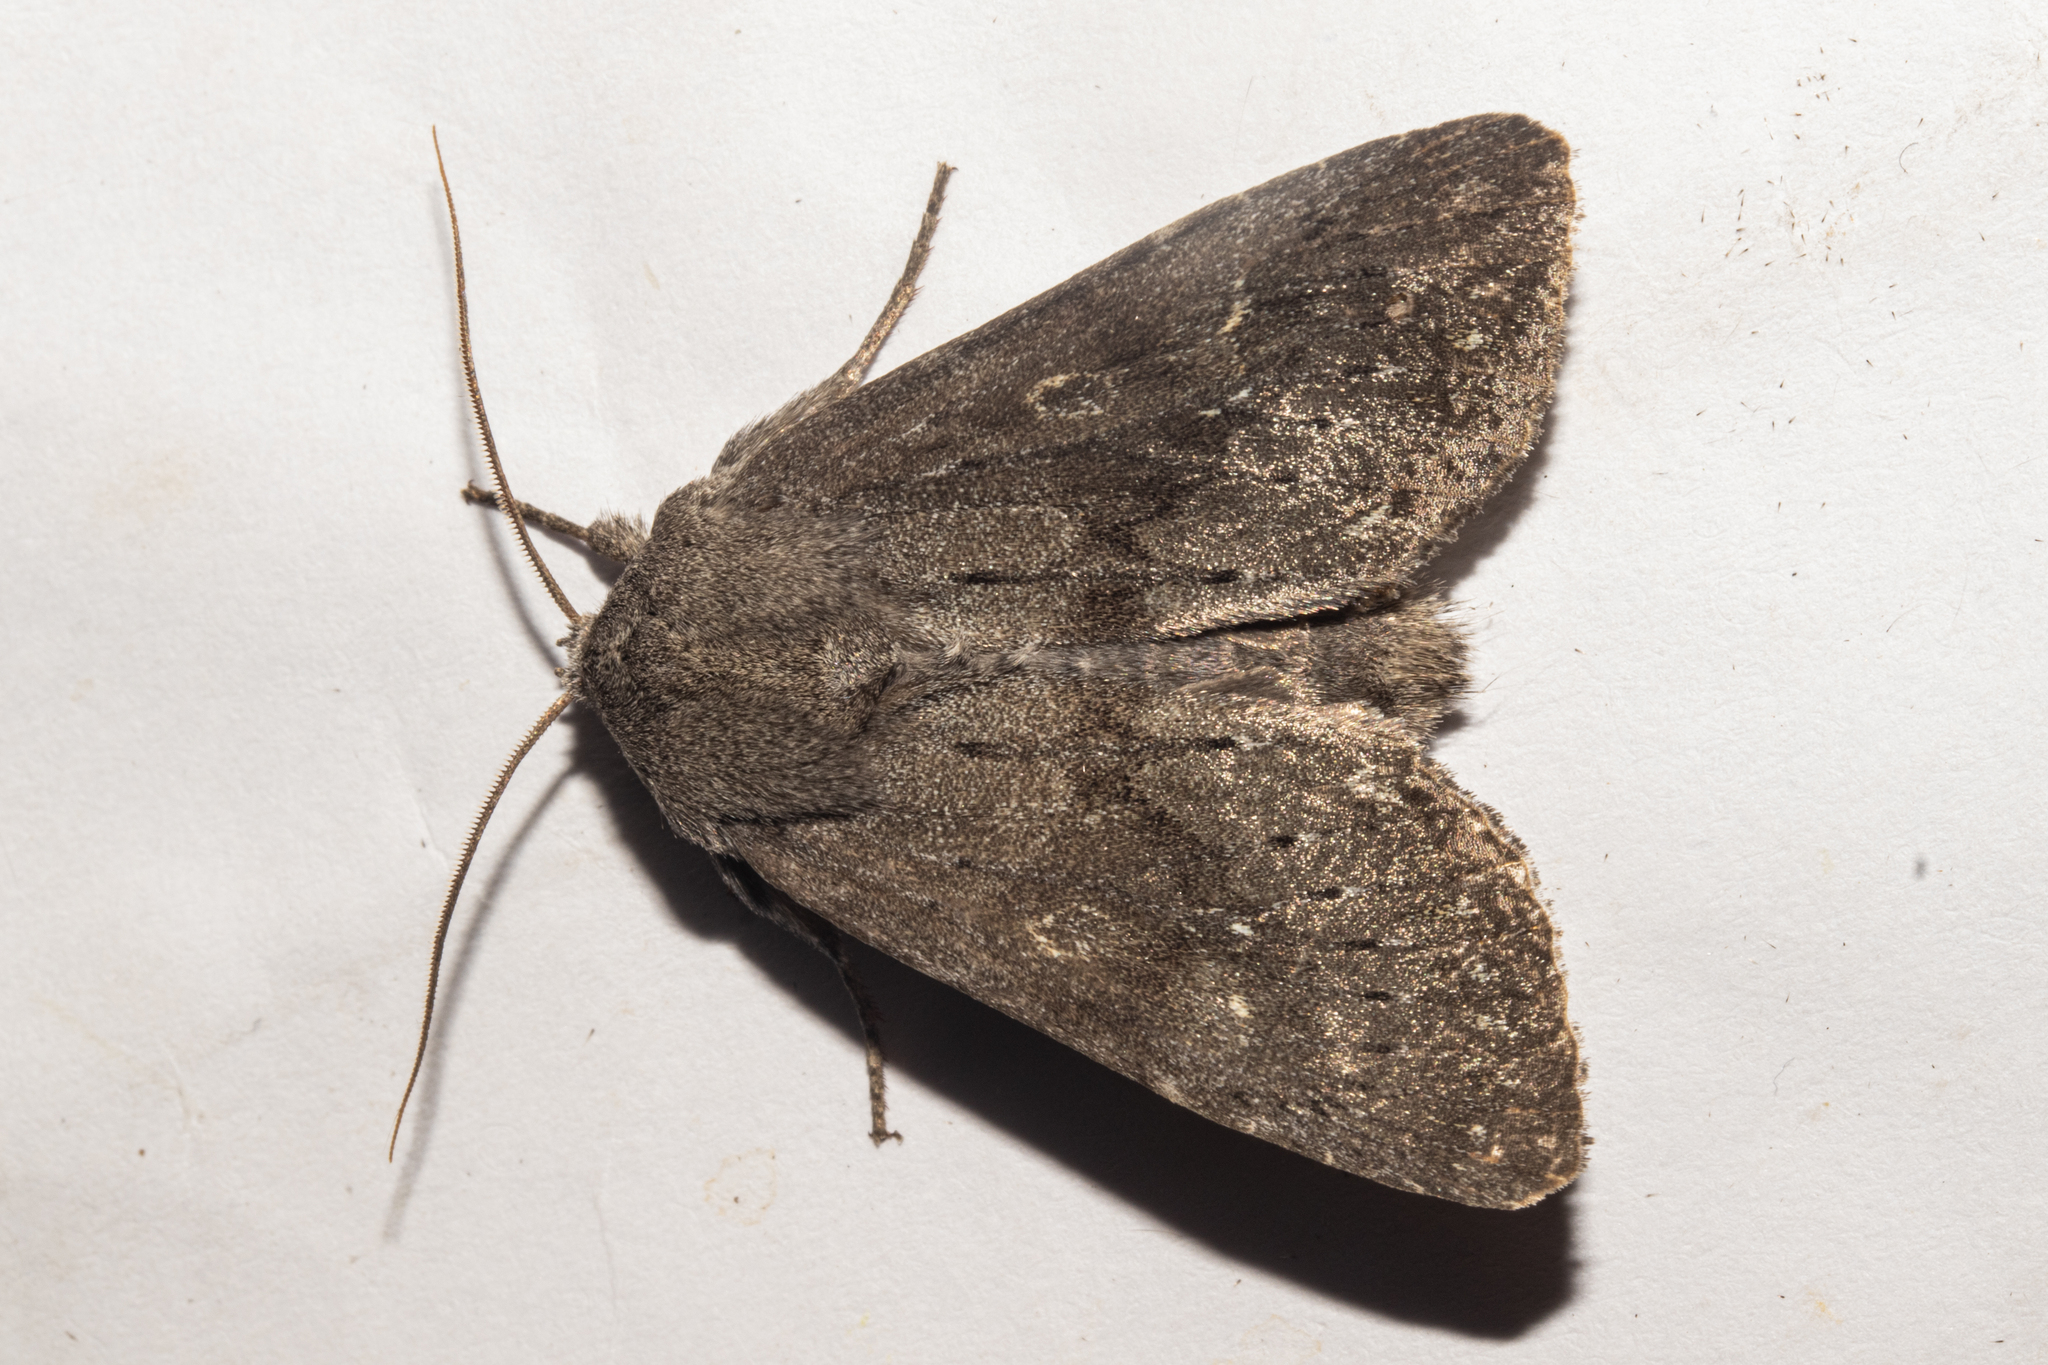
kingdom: Animalia
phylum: Arthropoda
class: Insecta
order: Lepidoptera
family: Noctuidae
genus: Ichneutica
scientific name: Ichneutica nullifera
